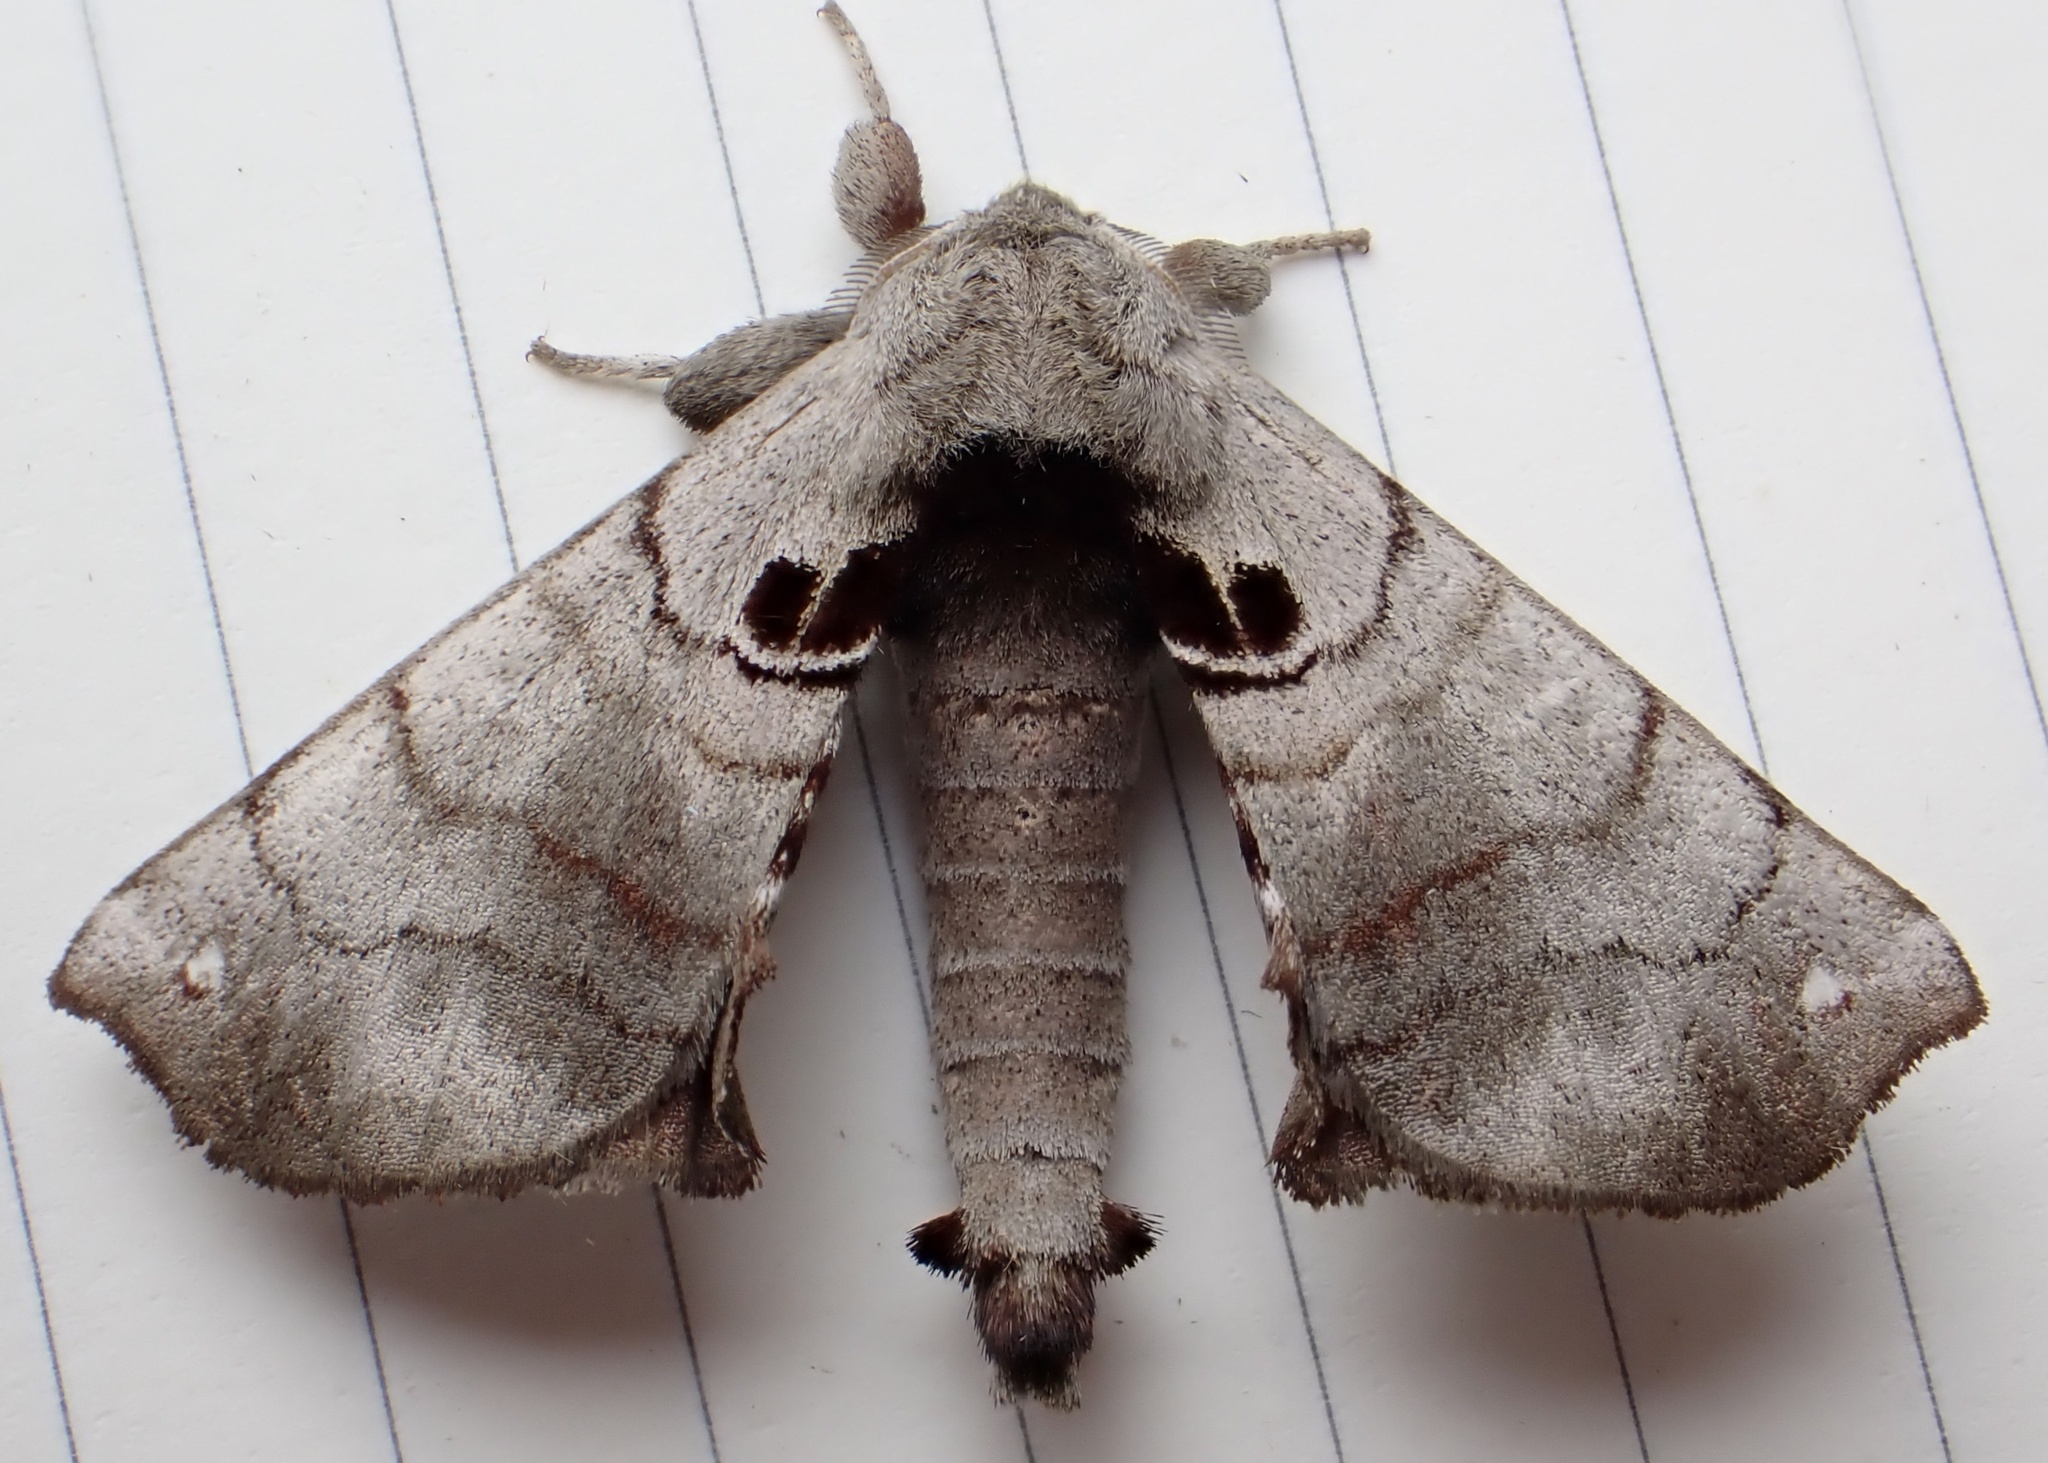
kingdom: Animalia
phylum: Arthropoda
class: Insecta
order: Lepidoptera
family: Apatelodidae
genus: Hygrochroa
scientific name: Hygrochroa Apatelodes torrefacta
